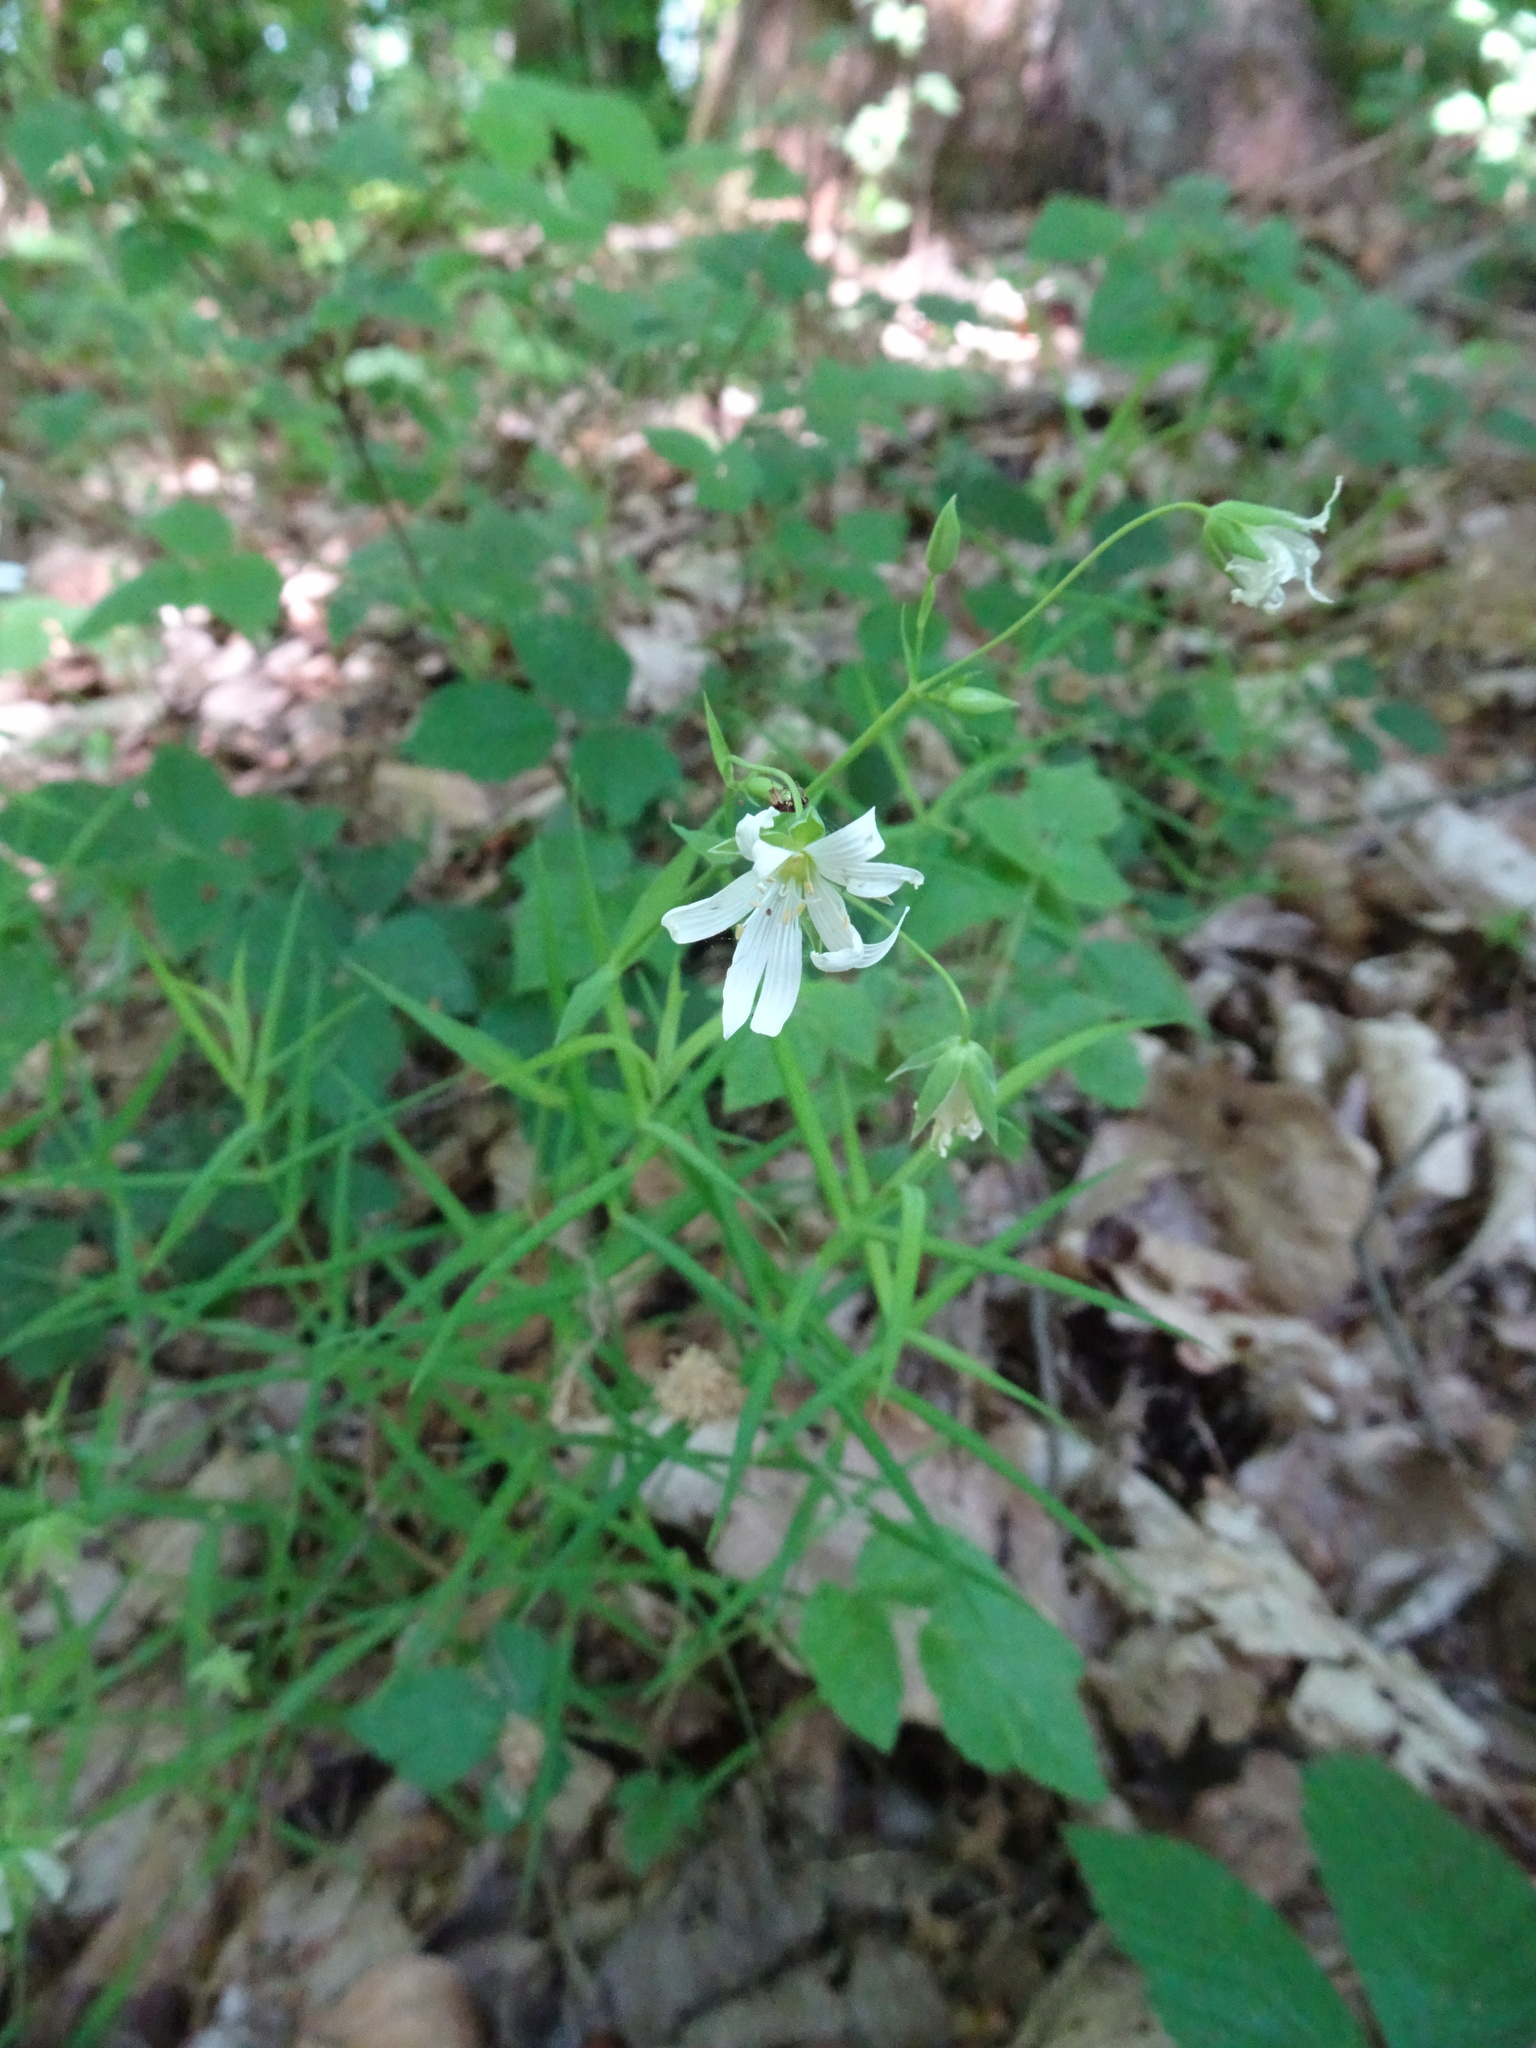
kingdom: Plantae
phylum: Tracheophyta
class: Magnoliopsida
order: Caryophyllales
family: Caryophyllaceae
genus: Rabelera
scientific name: Rabelera holostea
